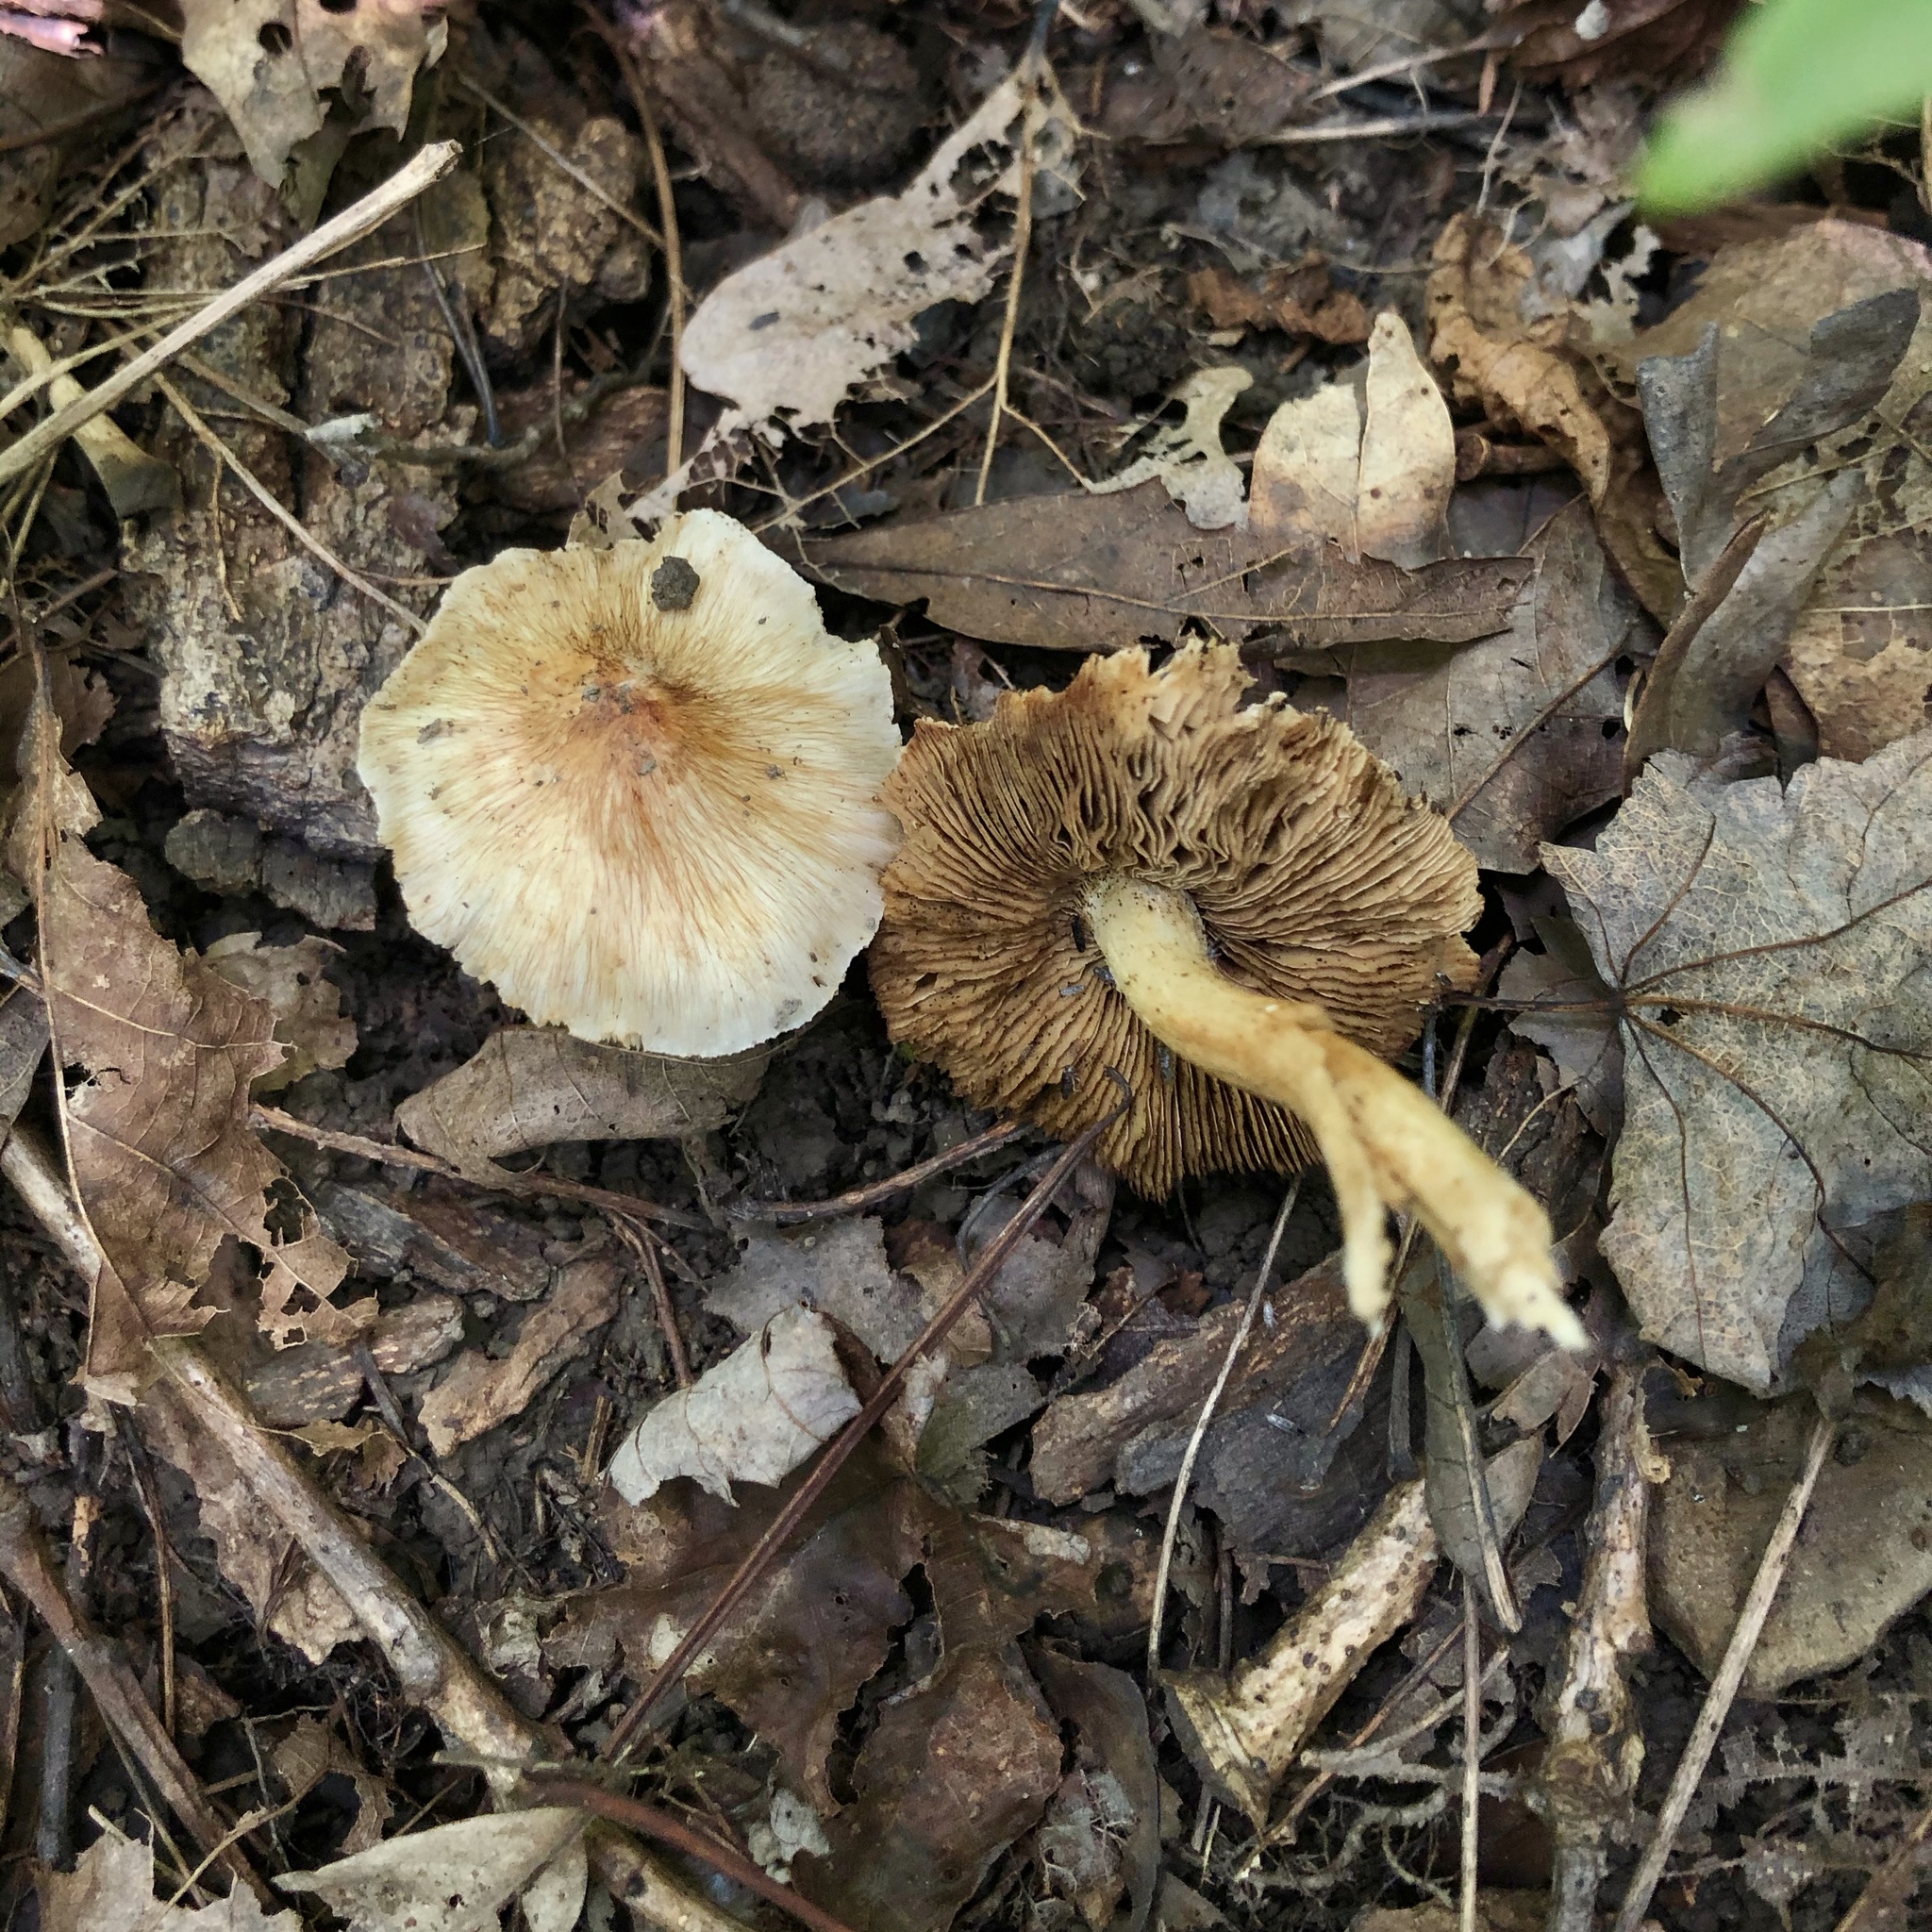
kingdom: Fungi
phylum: Basidiomycota
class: Agaricomycetes
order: Agaricales
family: Inocybaceae
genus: Pseudosperma
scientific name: Pseudosperma sororium
